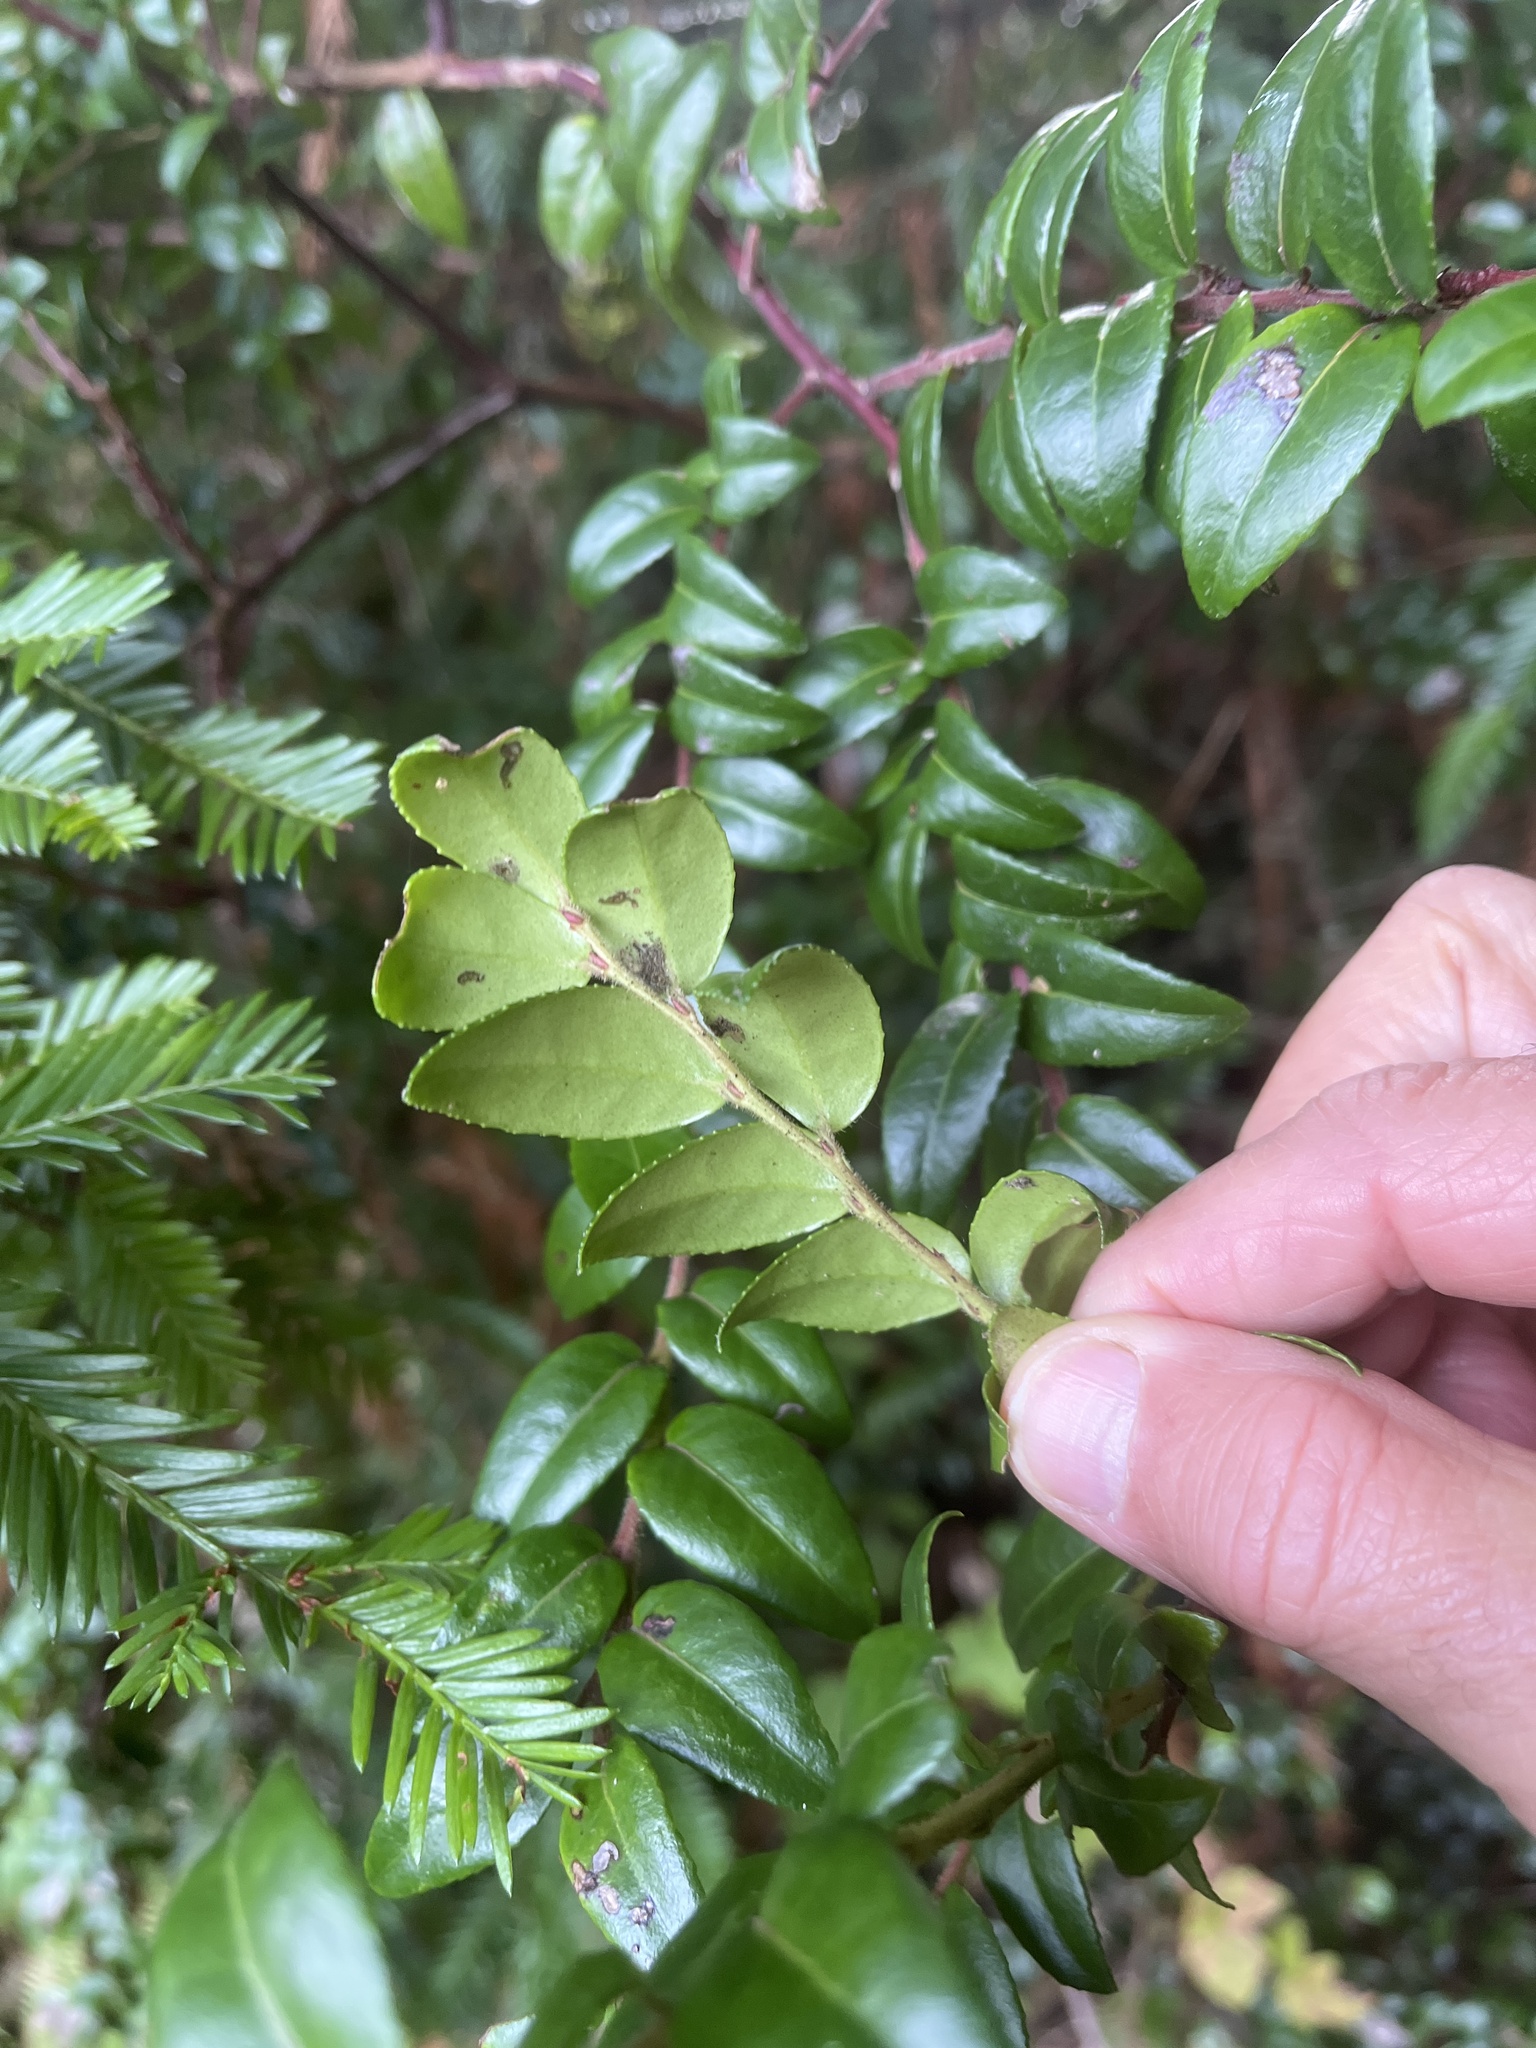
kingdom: Plantae
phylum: Tracheophyta
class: Magnoliopsida
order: Ericales
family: Ericaceae
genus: Vaccinium
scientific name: Vaccinium ovatum
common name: California-huckleberry
